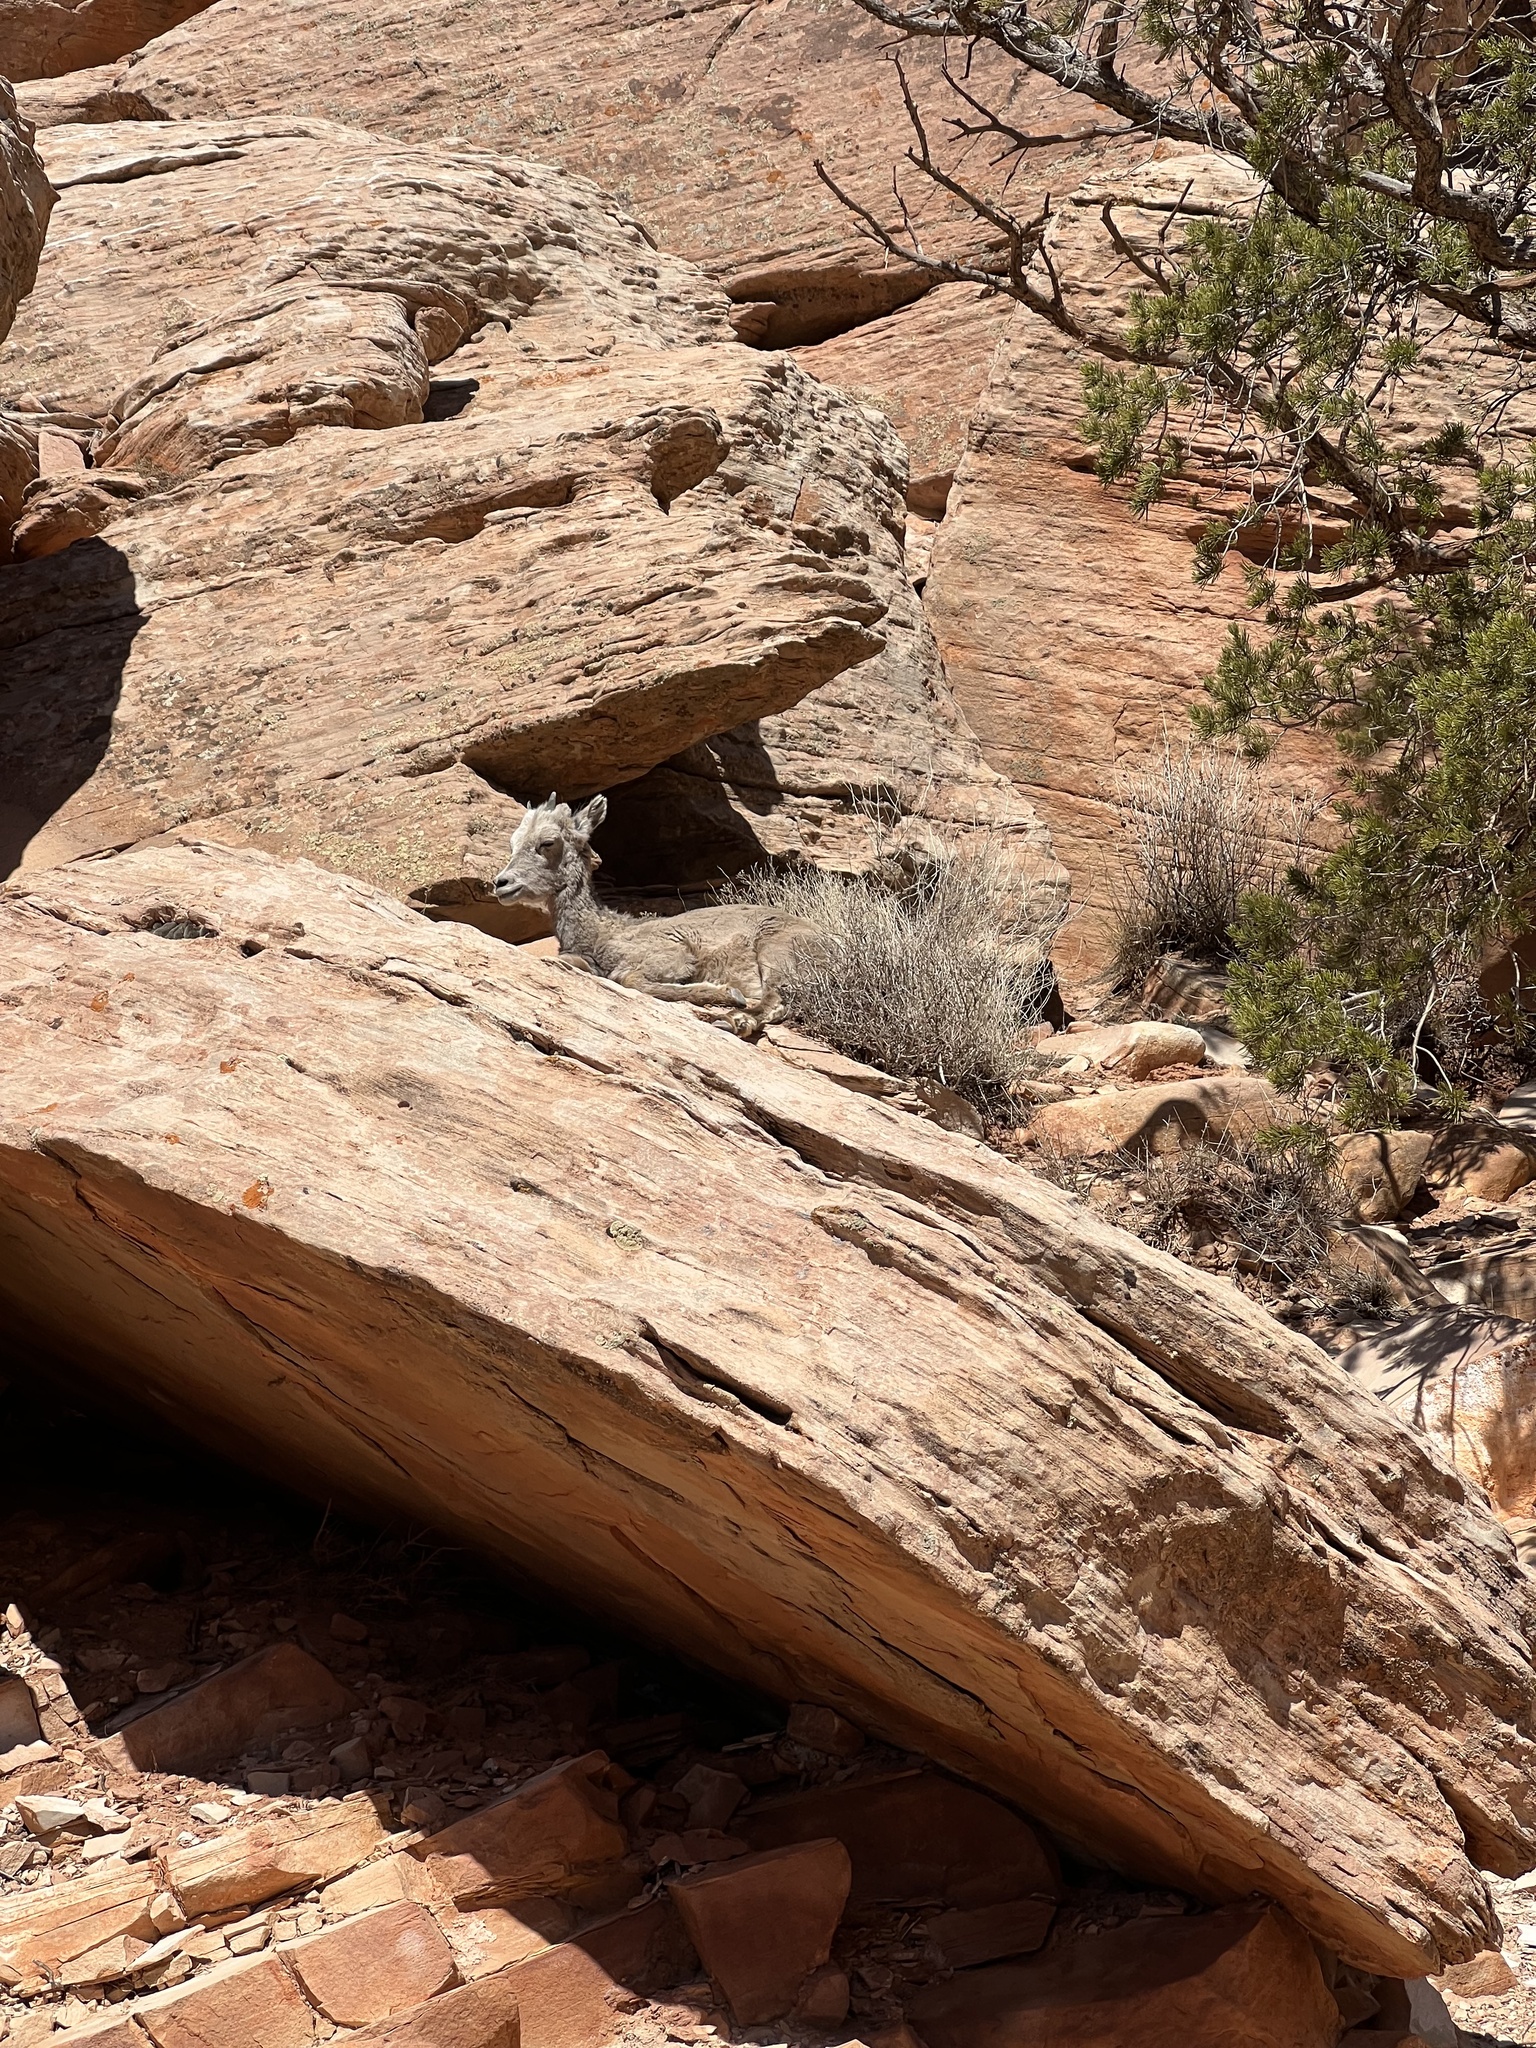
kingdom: Animalia
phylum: Chordata
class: Mammalia
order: Artiodactyla
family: Bovidae
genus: Ovis
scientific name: Ovis canadensis
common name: Bighorn sheep
